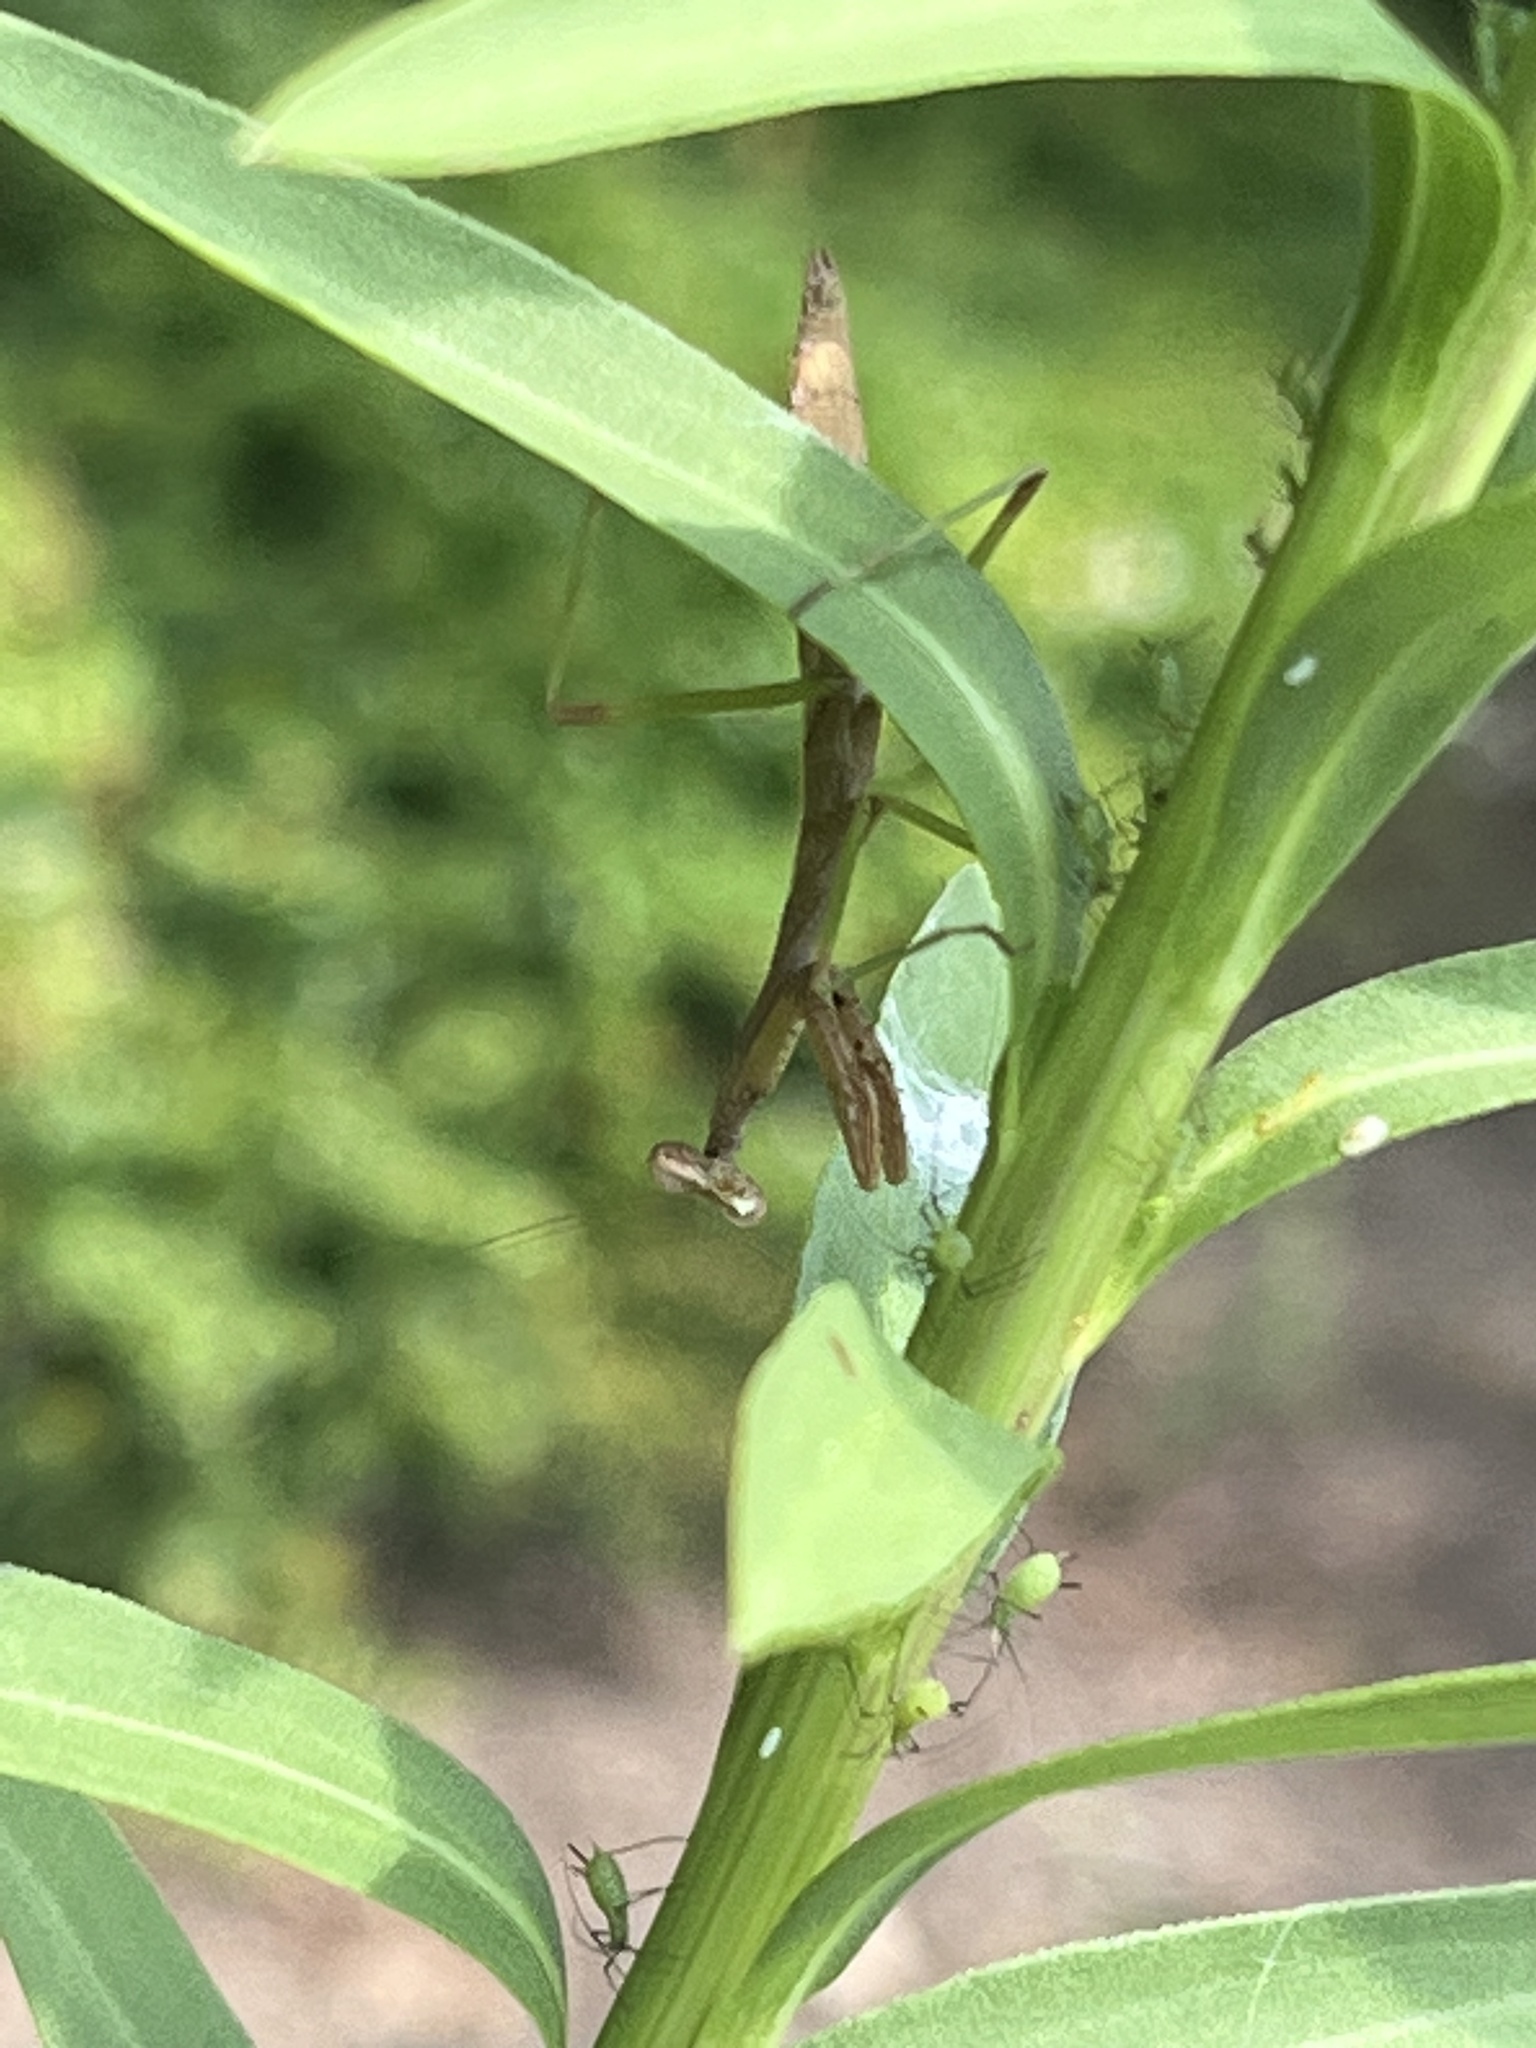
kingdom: Animalia
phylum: Arthropoda
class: Insecta
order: Mantodea
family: Mantidae
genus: Stagmomantis
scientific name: Stagmomantis carolina
